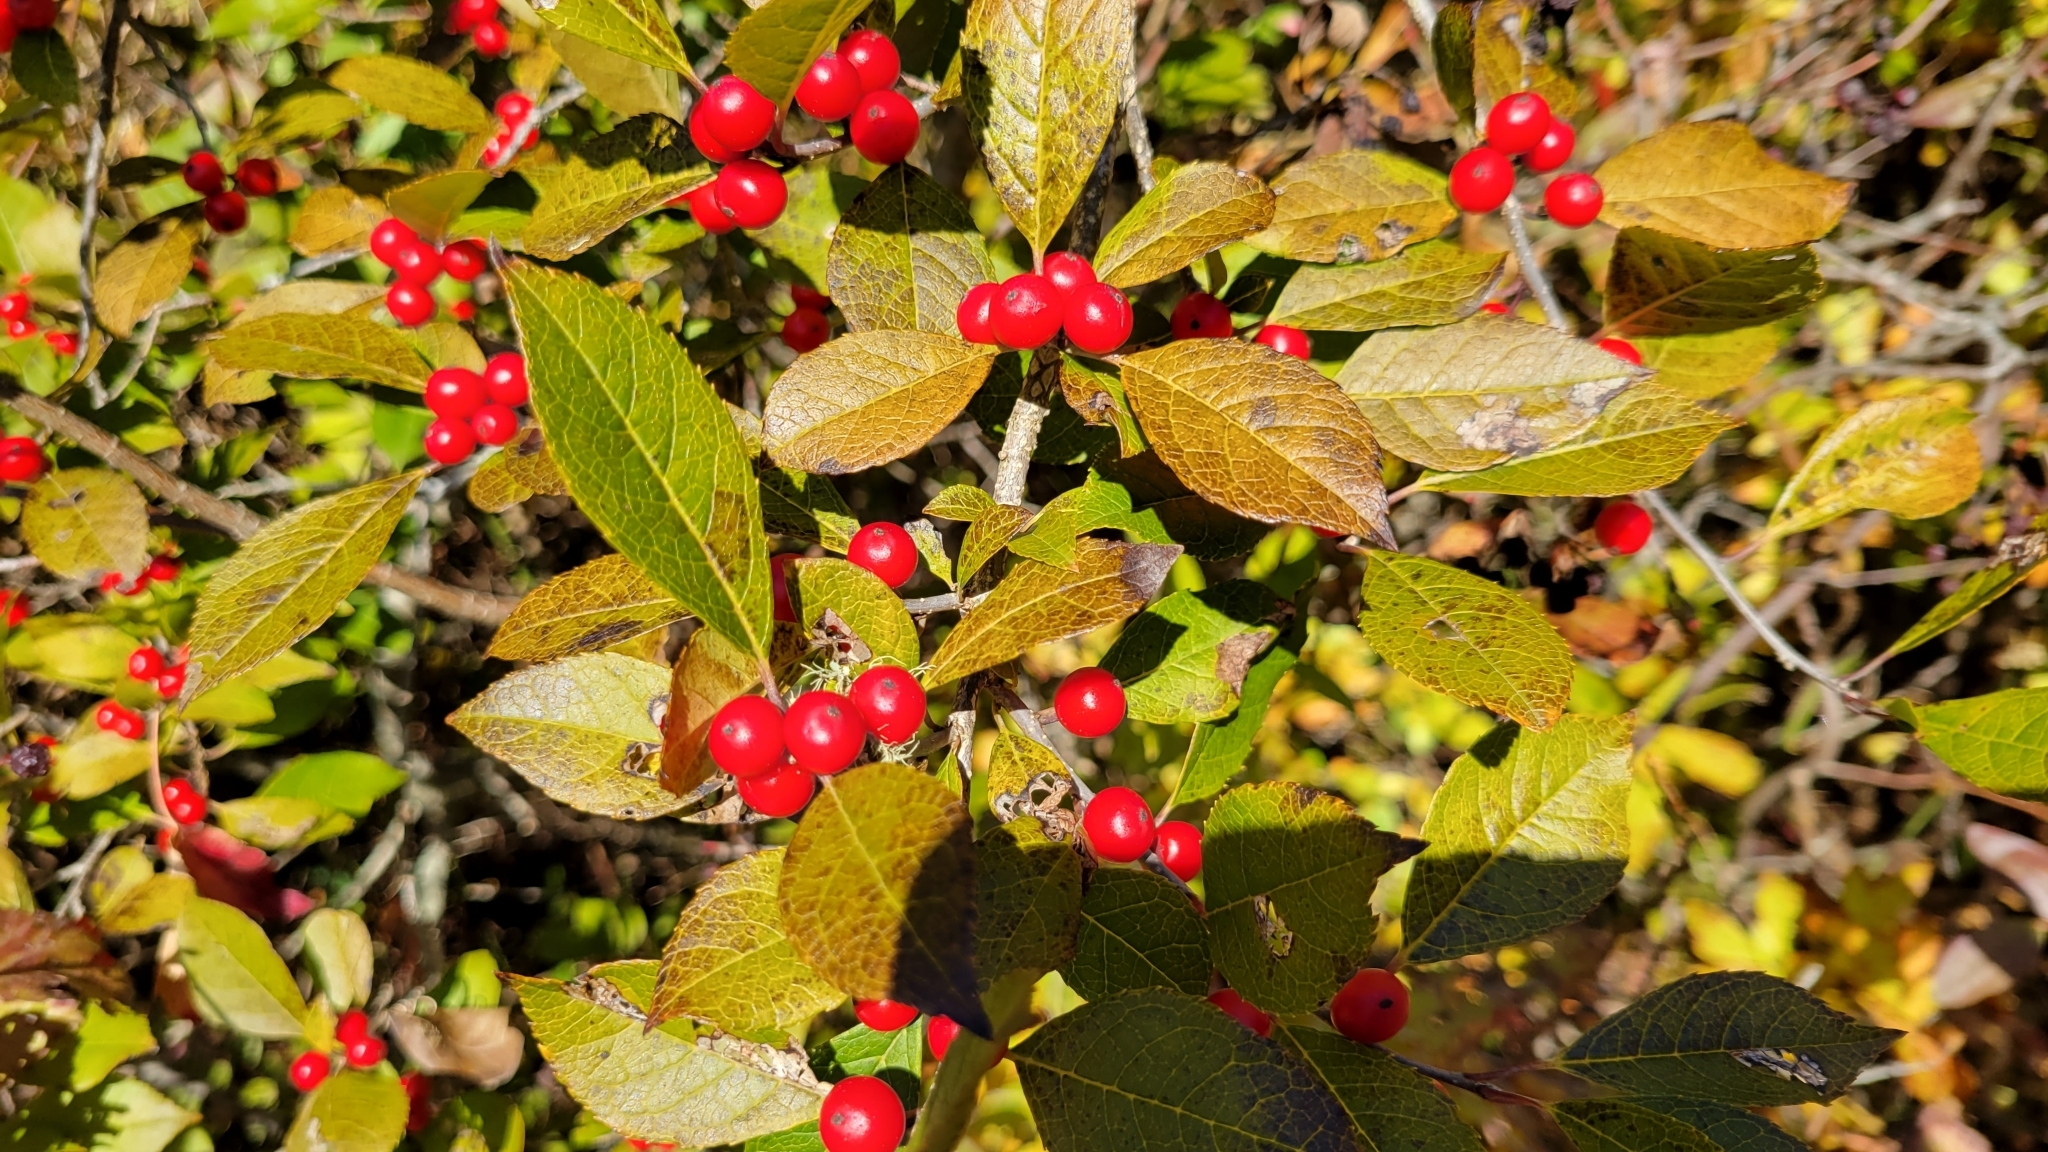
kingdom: Plantae
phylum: Tracheophyta
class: Magnoliopsida
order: Aquifoliales
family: Aquifoliaceae
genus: Ilex
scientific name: Ilex verticillata
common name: Virginia winterberry
